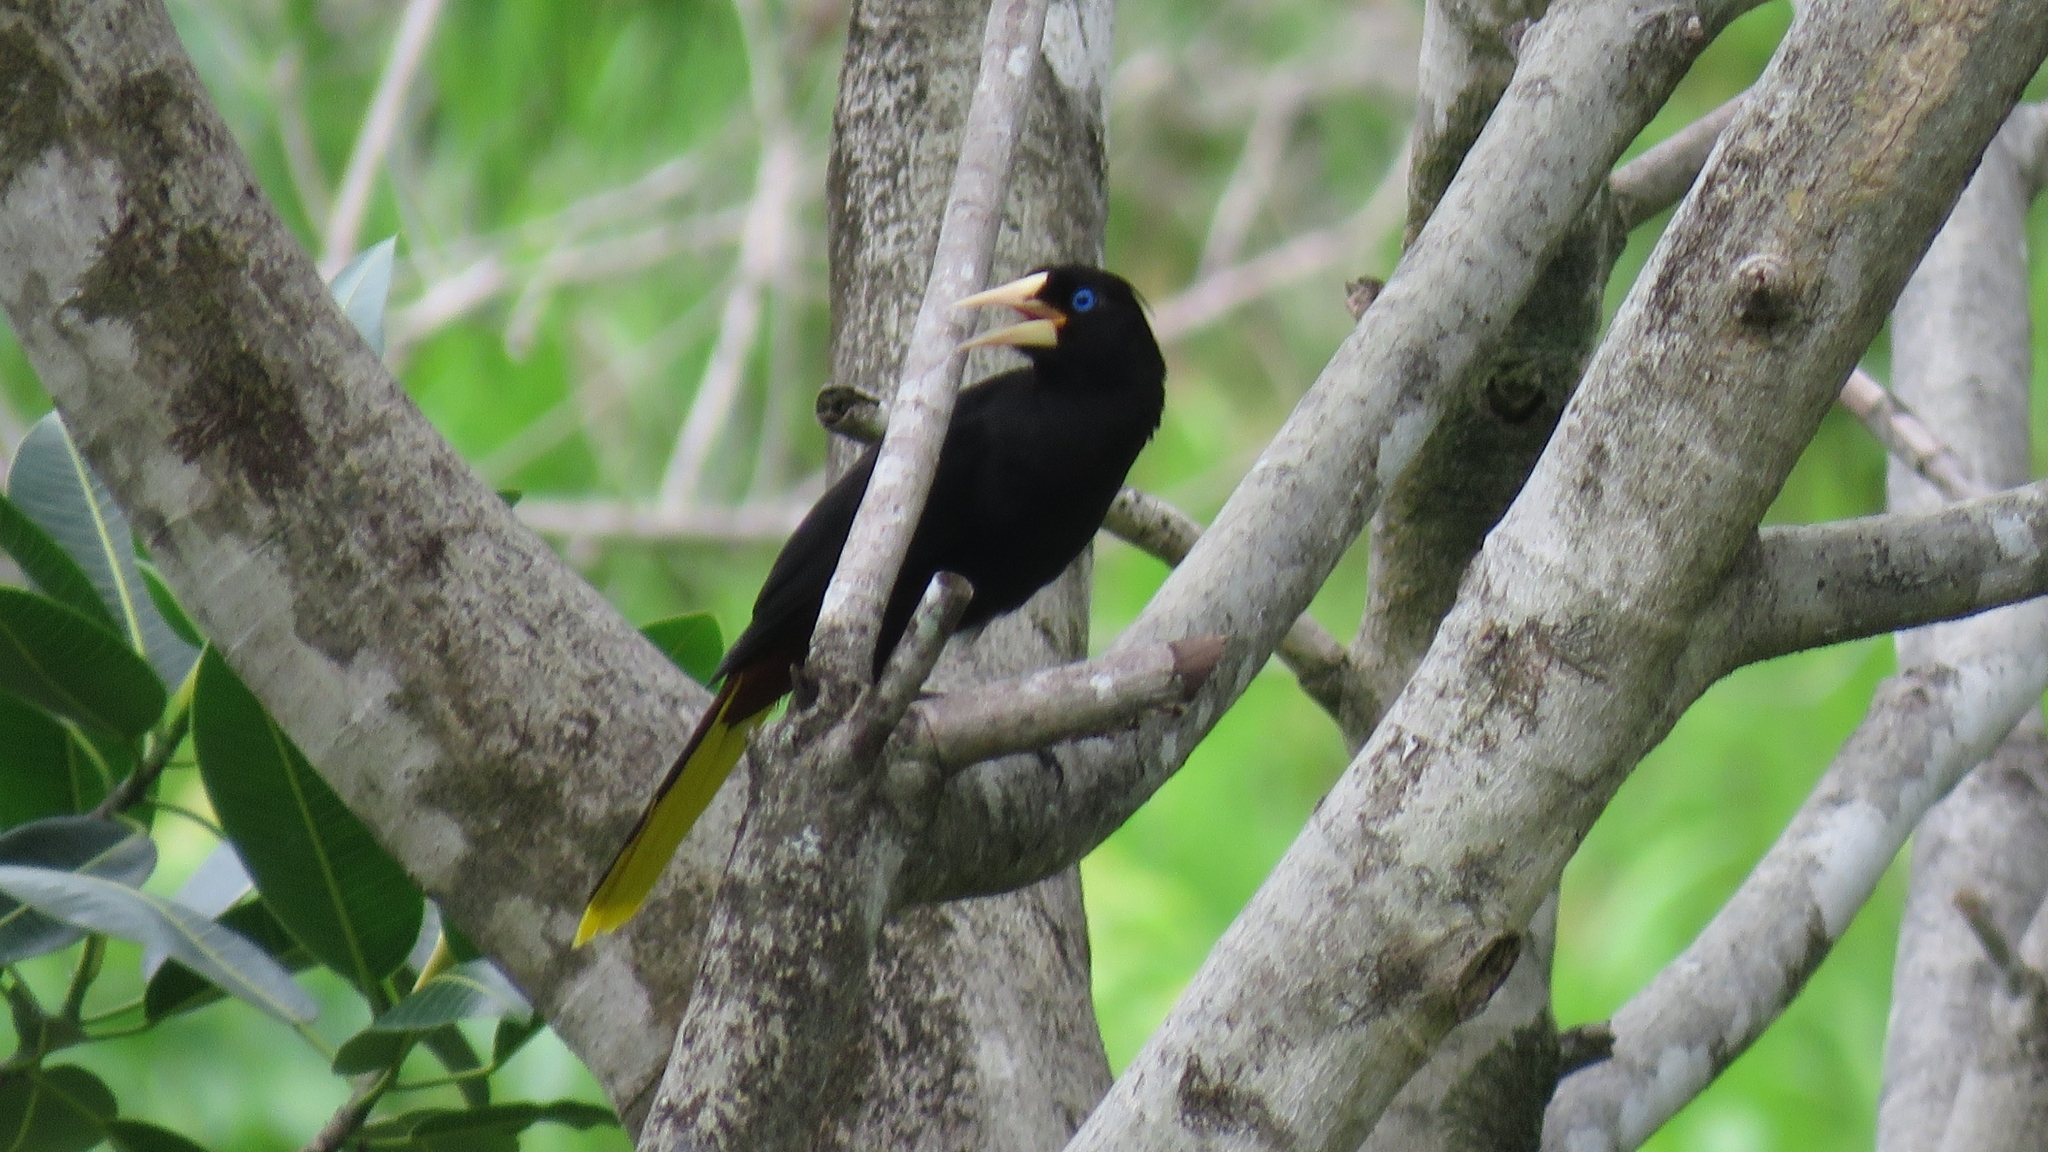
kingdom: Animalia
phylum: Chordata
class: Aves
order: Passeriformes
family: Icteridae
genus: Psarocolius
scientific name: Psarocolius decumanus
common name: Crested oropendola
